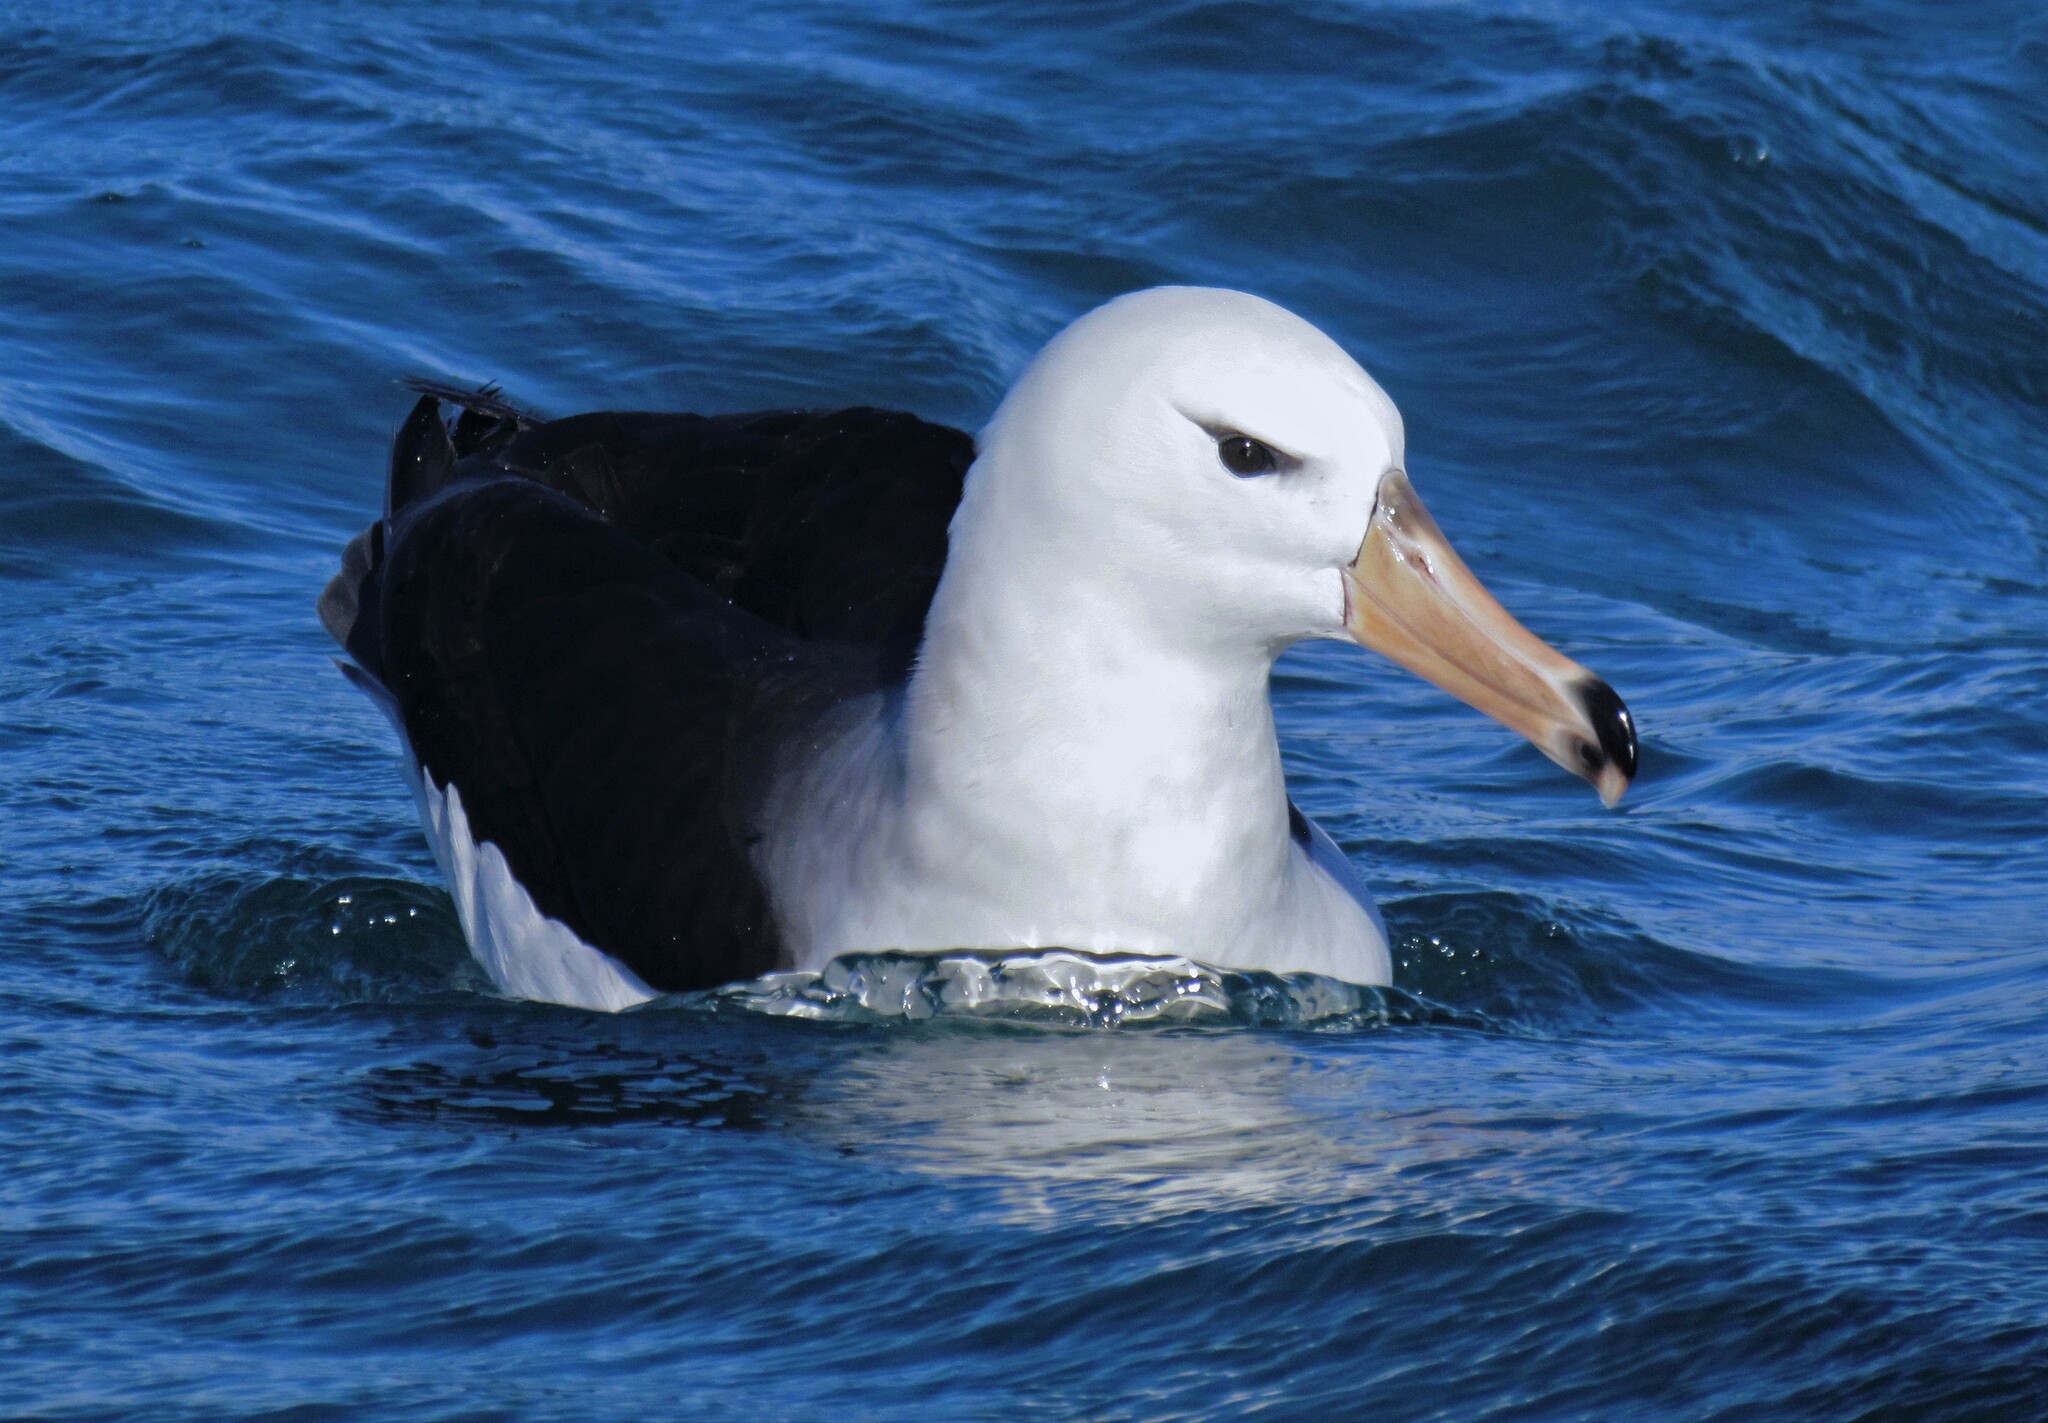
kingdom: Animalia
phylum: Chordata
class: Aves
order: Procellariiformes
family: Diomedeidae
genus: Thalassarche
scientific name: Thalassarche melanophris
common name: Black-browed albatross
